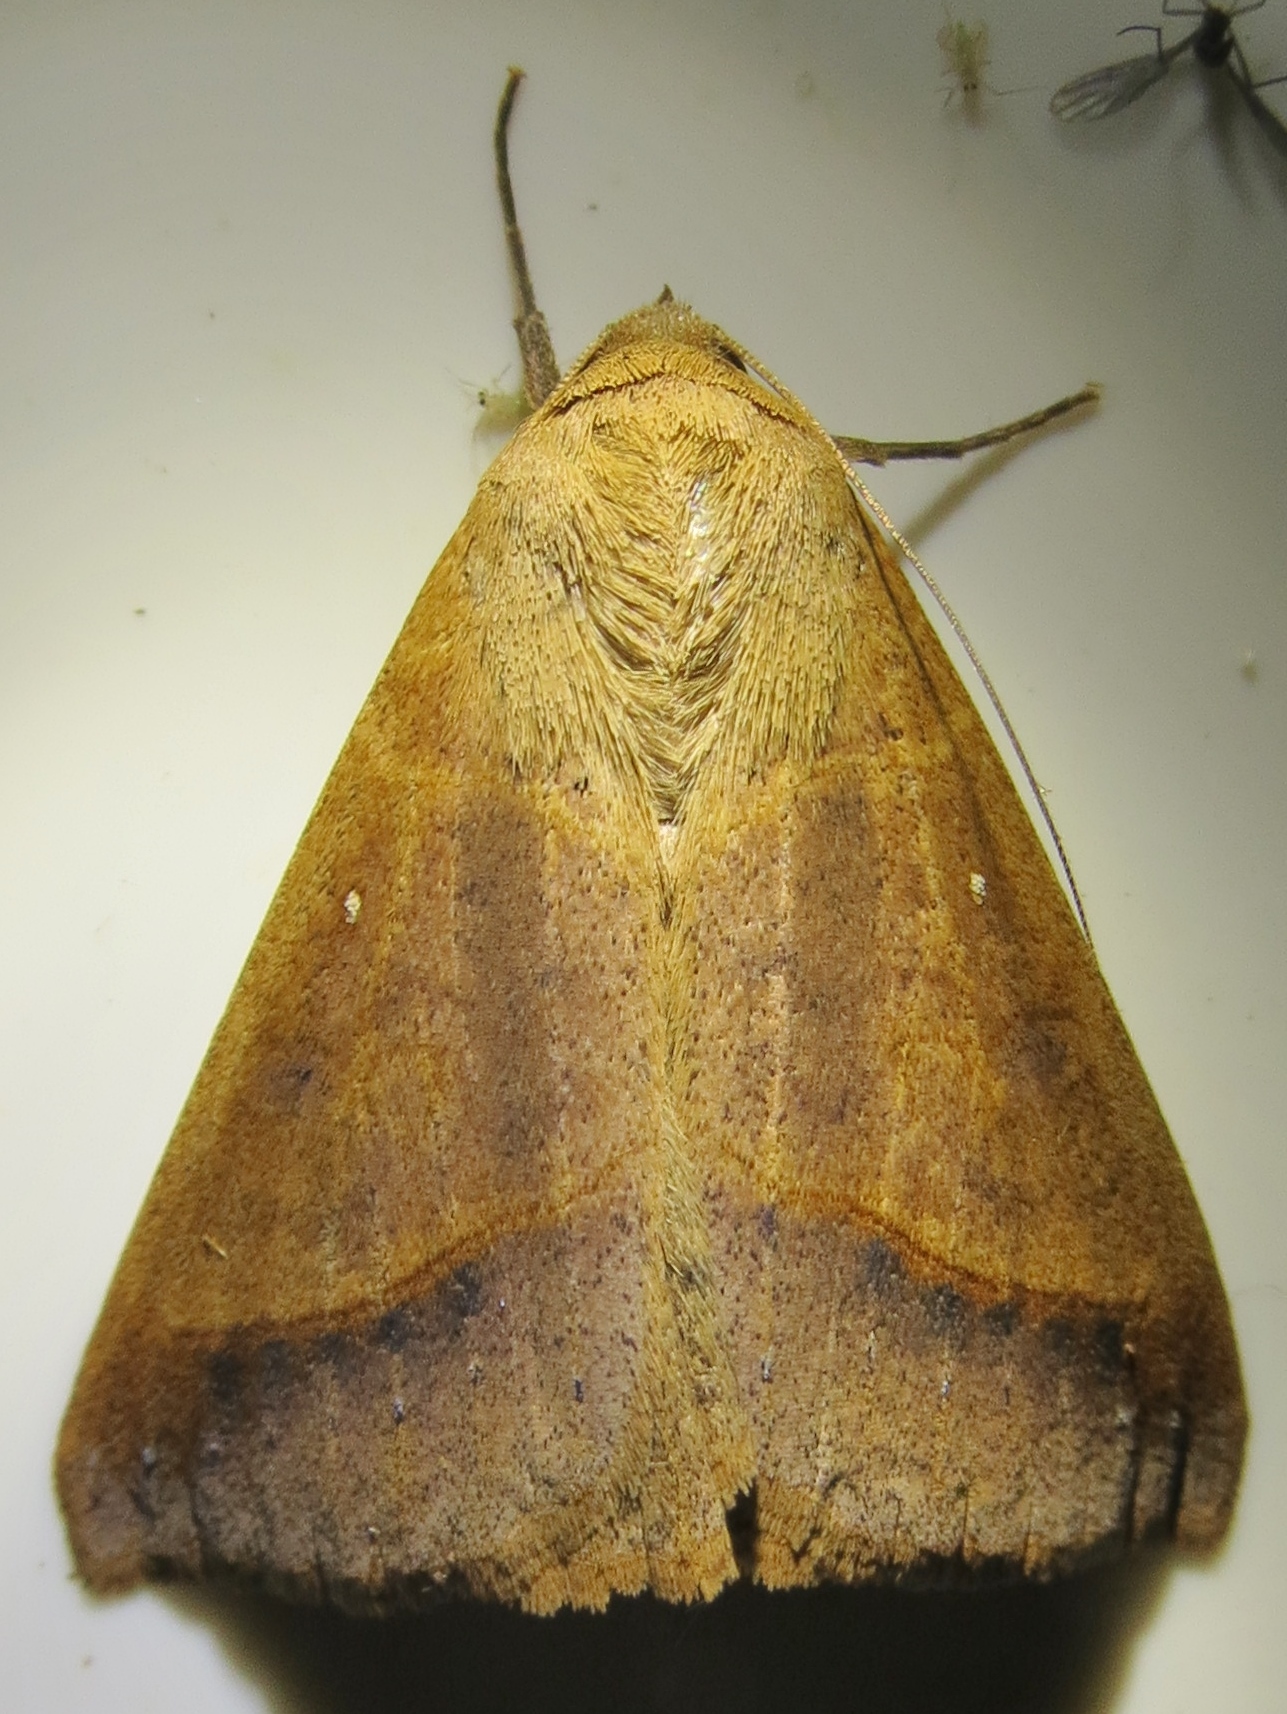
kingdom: Animalia
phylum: Arthropoda
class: Insecta
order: Lepidoptera
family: Erebidae
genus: Mocis
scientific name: Mocis disseverans
